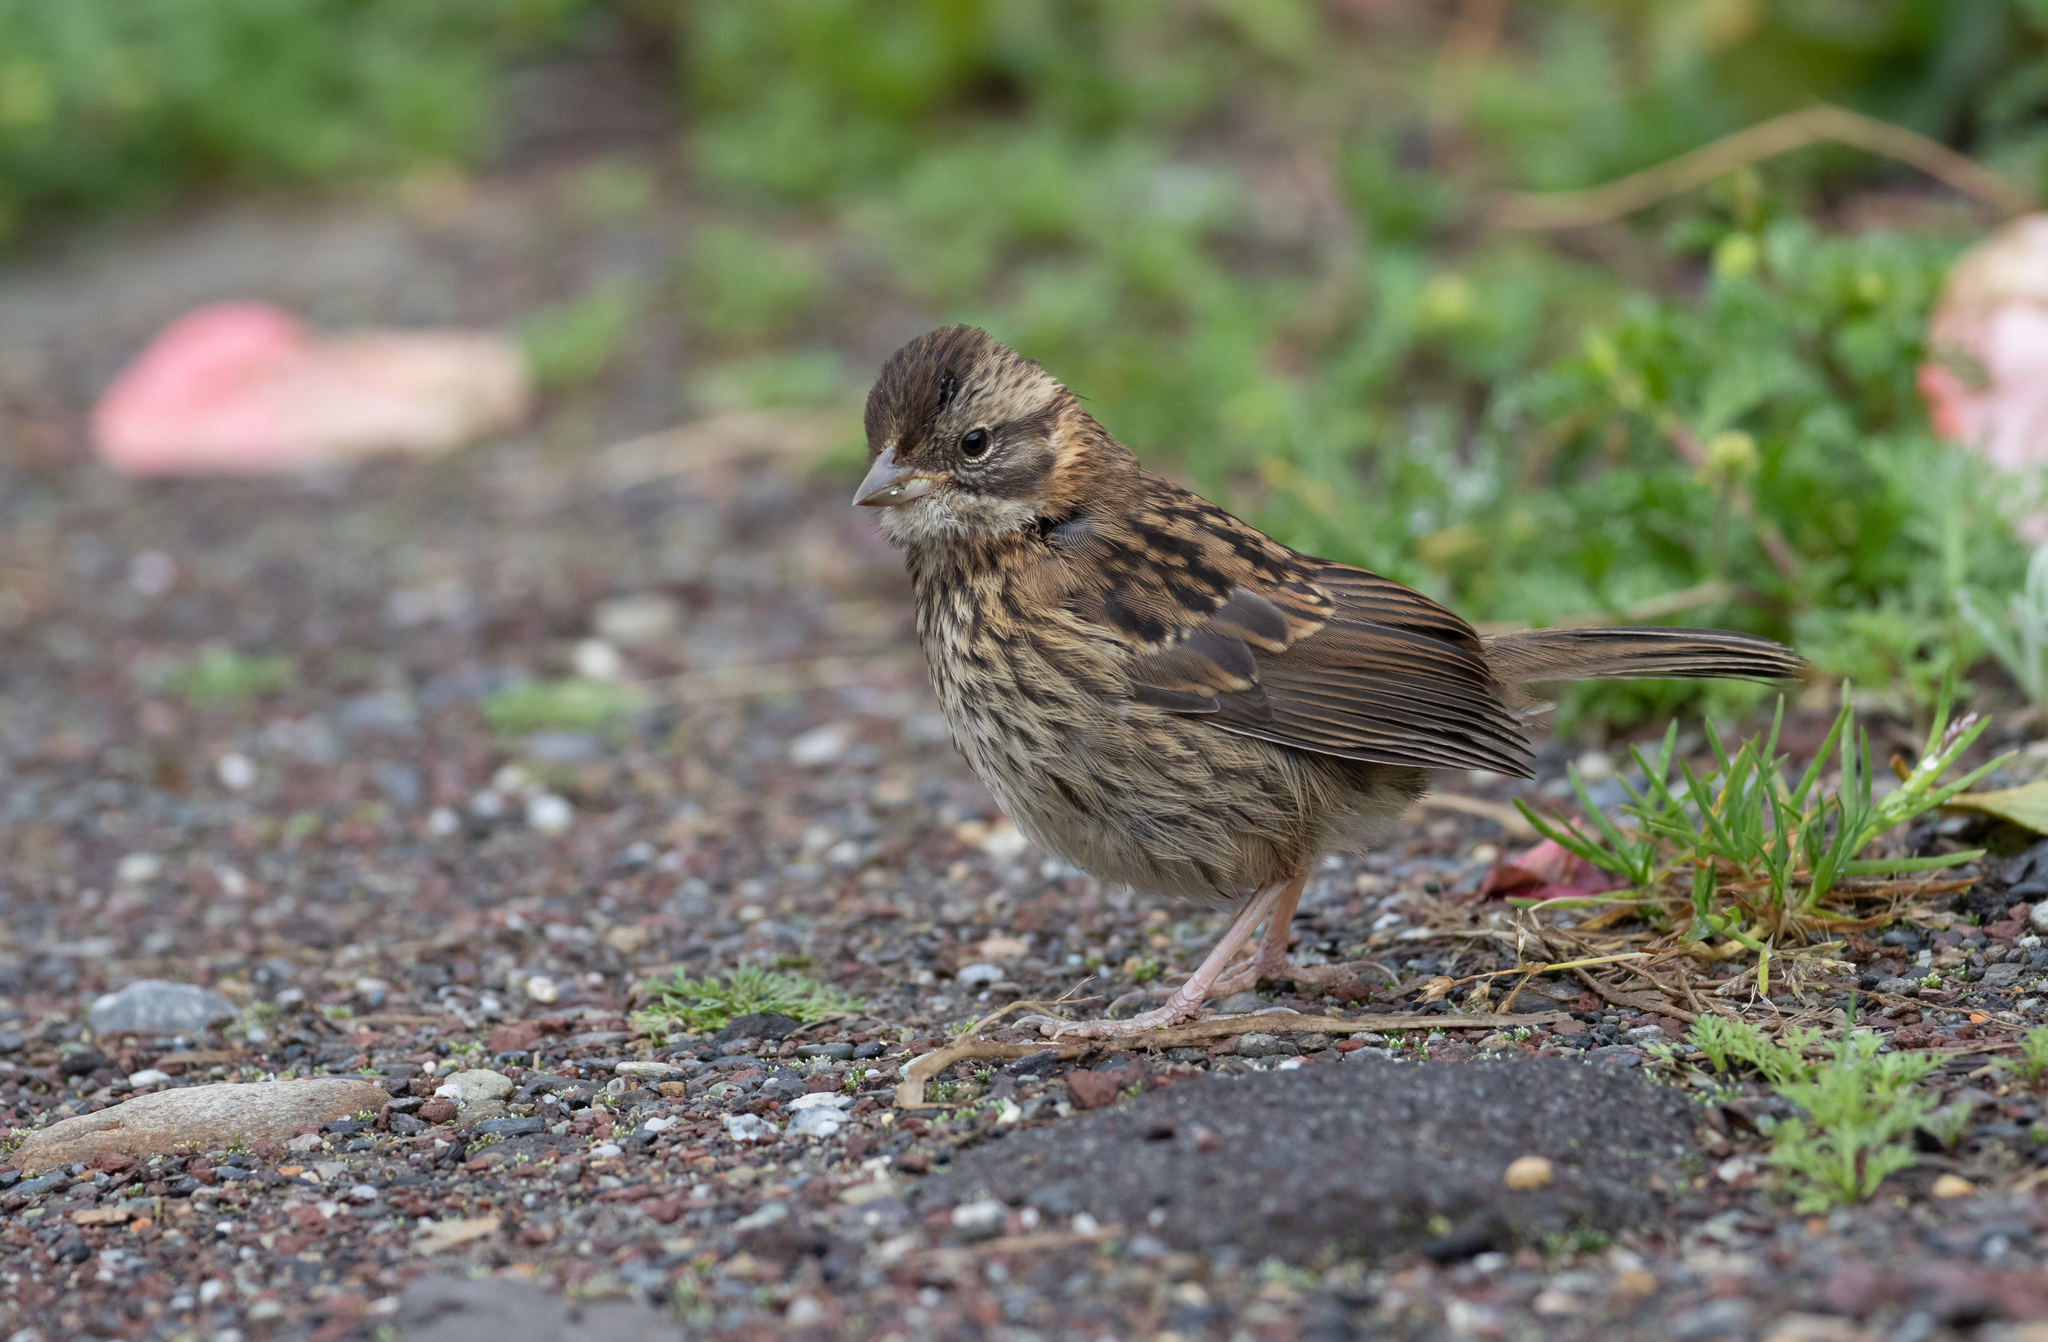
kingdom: Animalia
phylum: Chordata
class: Aves
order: Passeriformes
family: Passerellidae
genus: Zonotrichia
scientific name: Zonotrichia capensis
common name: Rufous-collared sparrow
